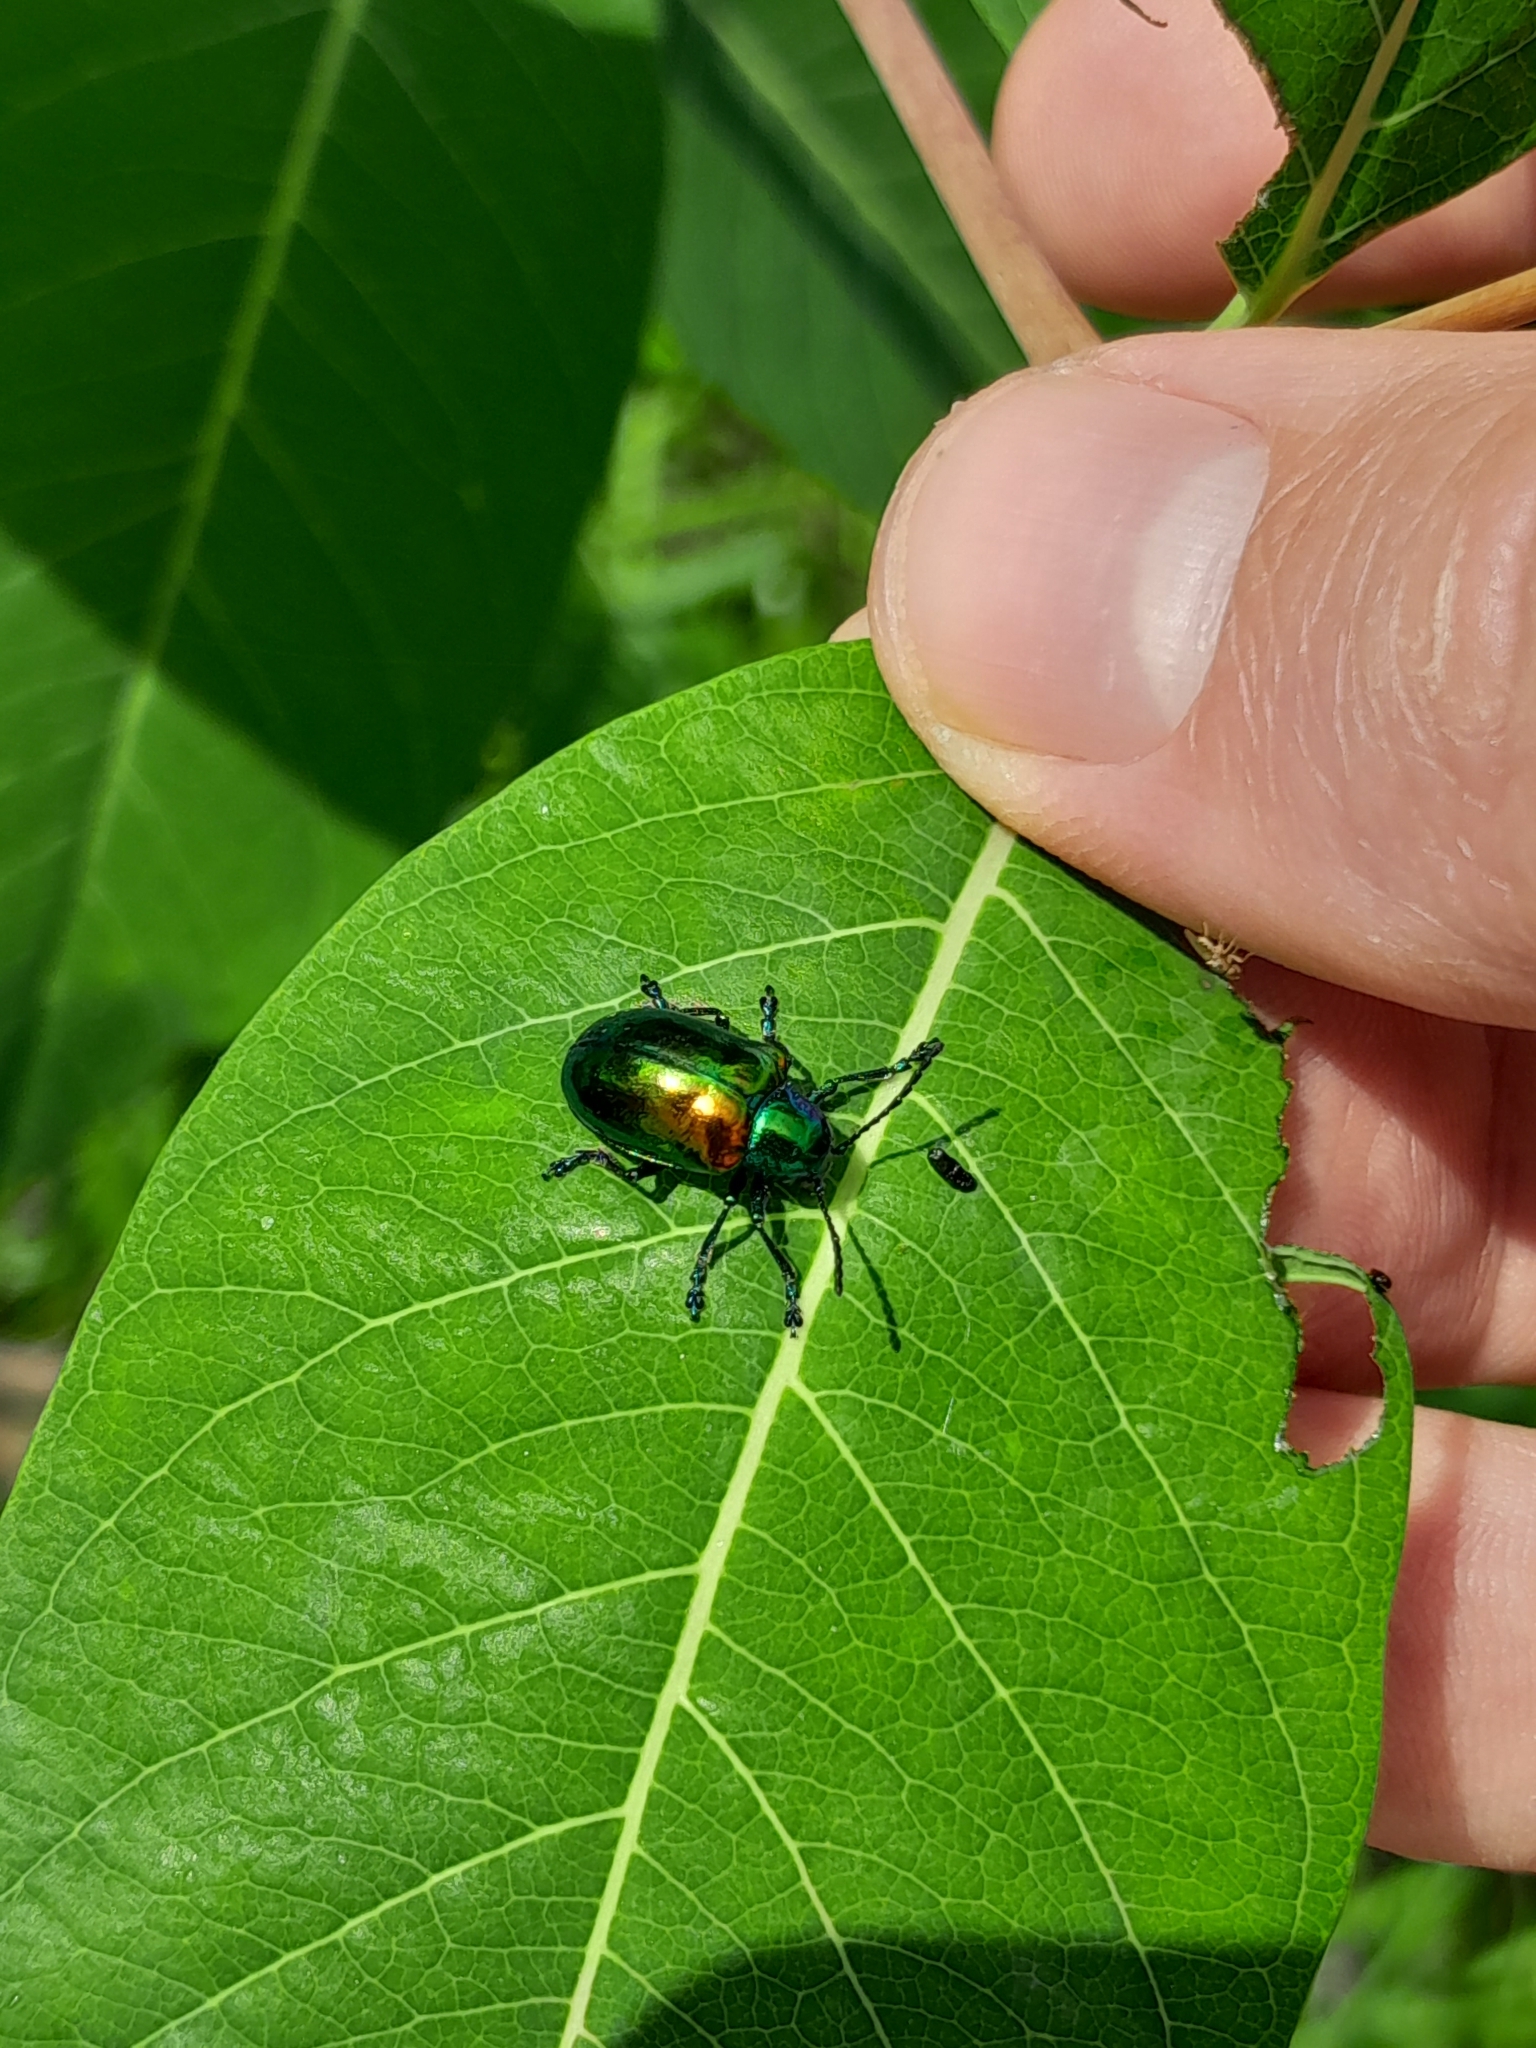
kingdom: Animalia
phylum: Arthropoda
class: Insecta
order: Coleoptera
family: Chrysomelidae
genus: Chrysochus
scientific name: Chrysochus auratus
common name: Dogbane leaf beetle
